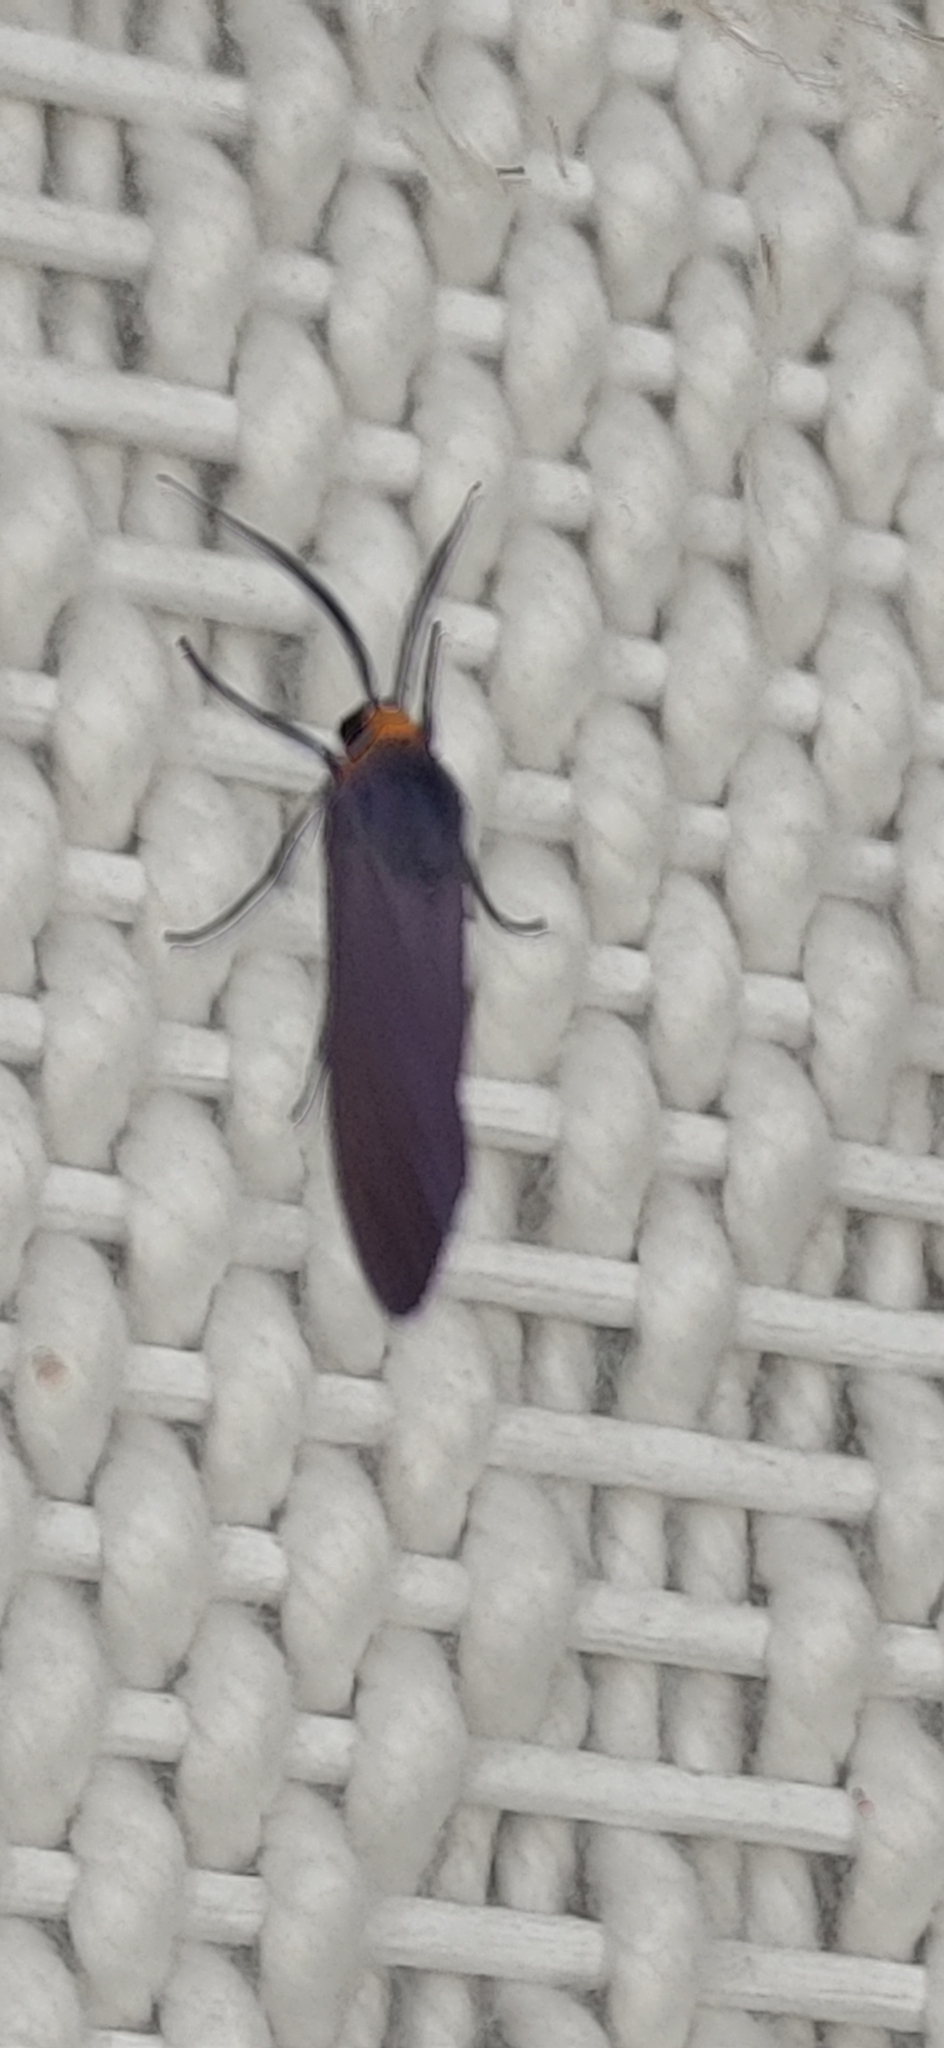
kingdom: Animalia
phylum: Arthropoda
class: Insecta
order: Lepidoptera
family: Erebidae
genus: Lymire
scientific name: Lymire edwardsii
